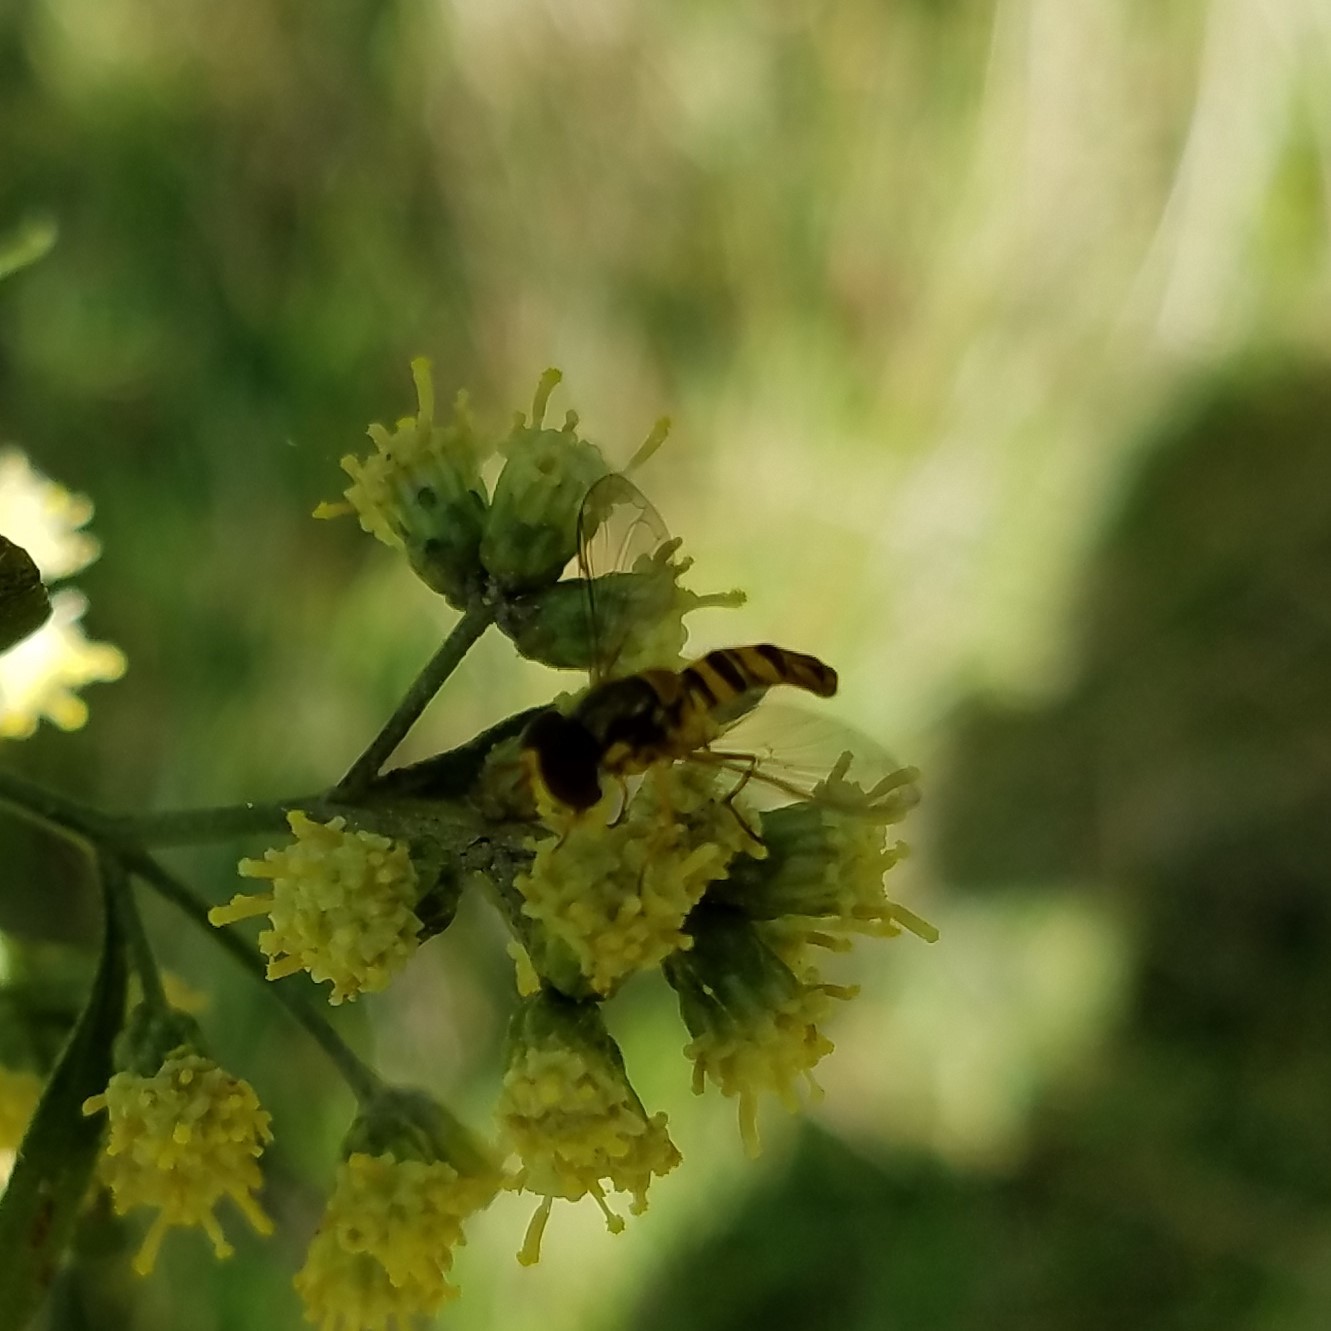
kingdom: Animalia
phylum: Arthropoda
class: Insecta
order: Diptera
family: Syrphidae
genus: Allograpta
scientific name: Allograpta obliqua
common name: Common oblique syrphid
